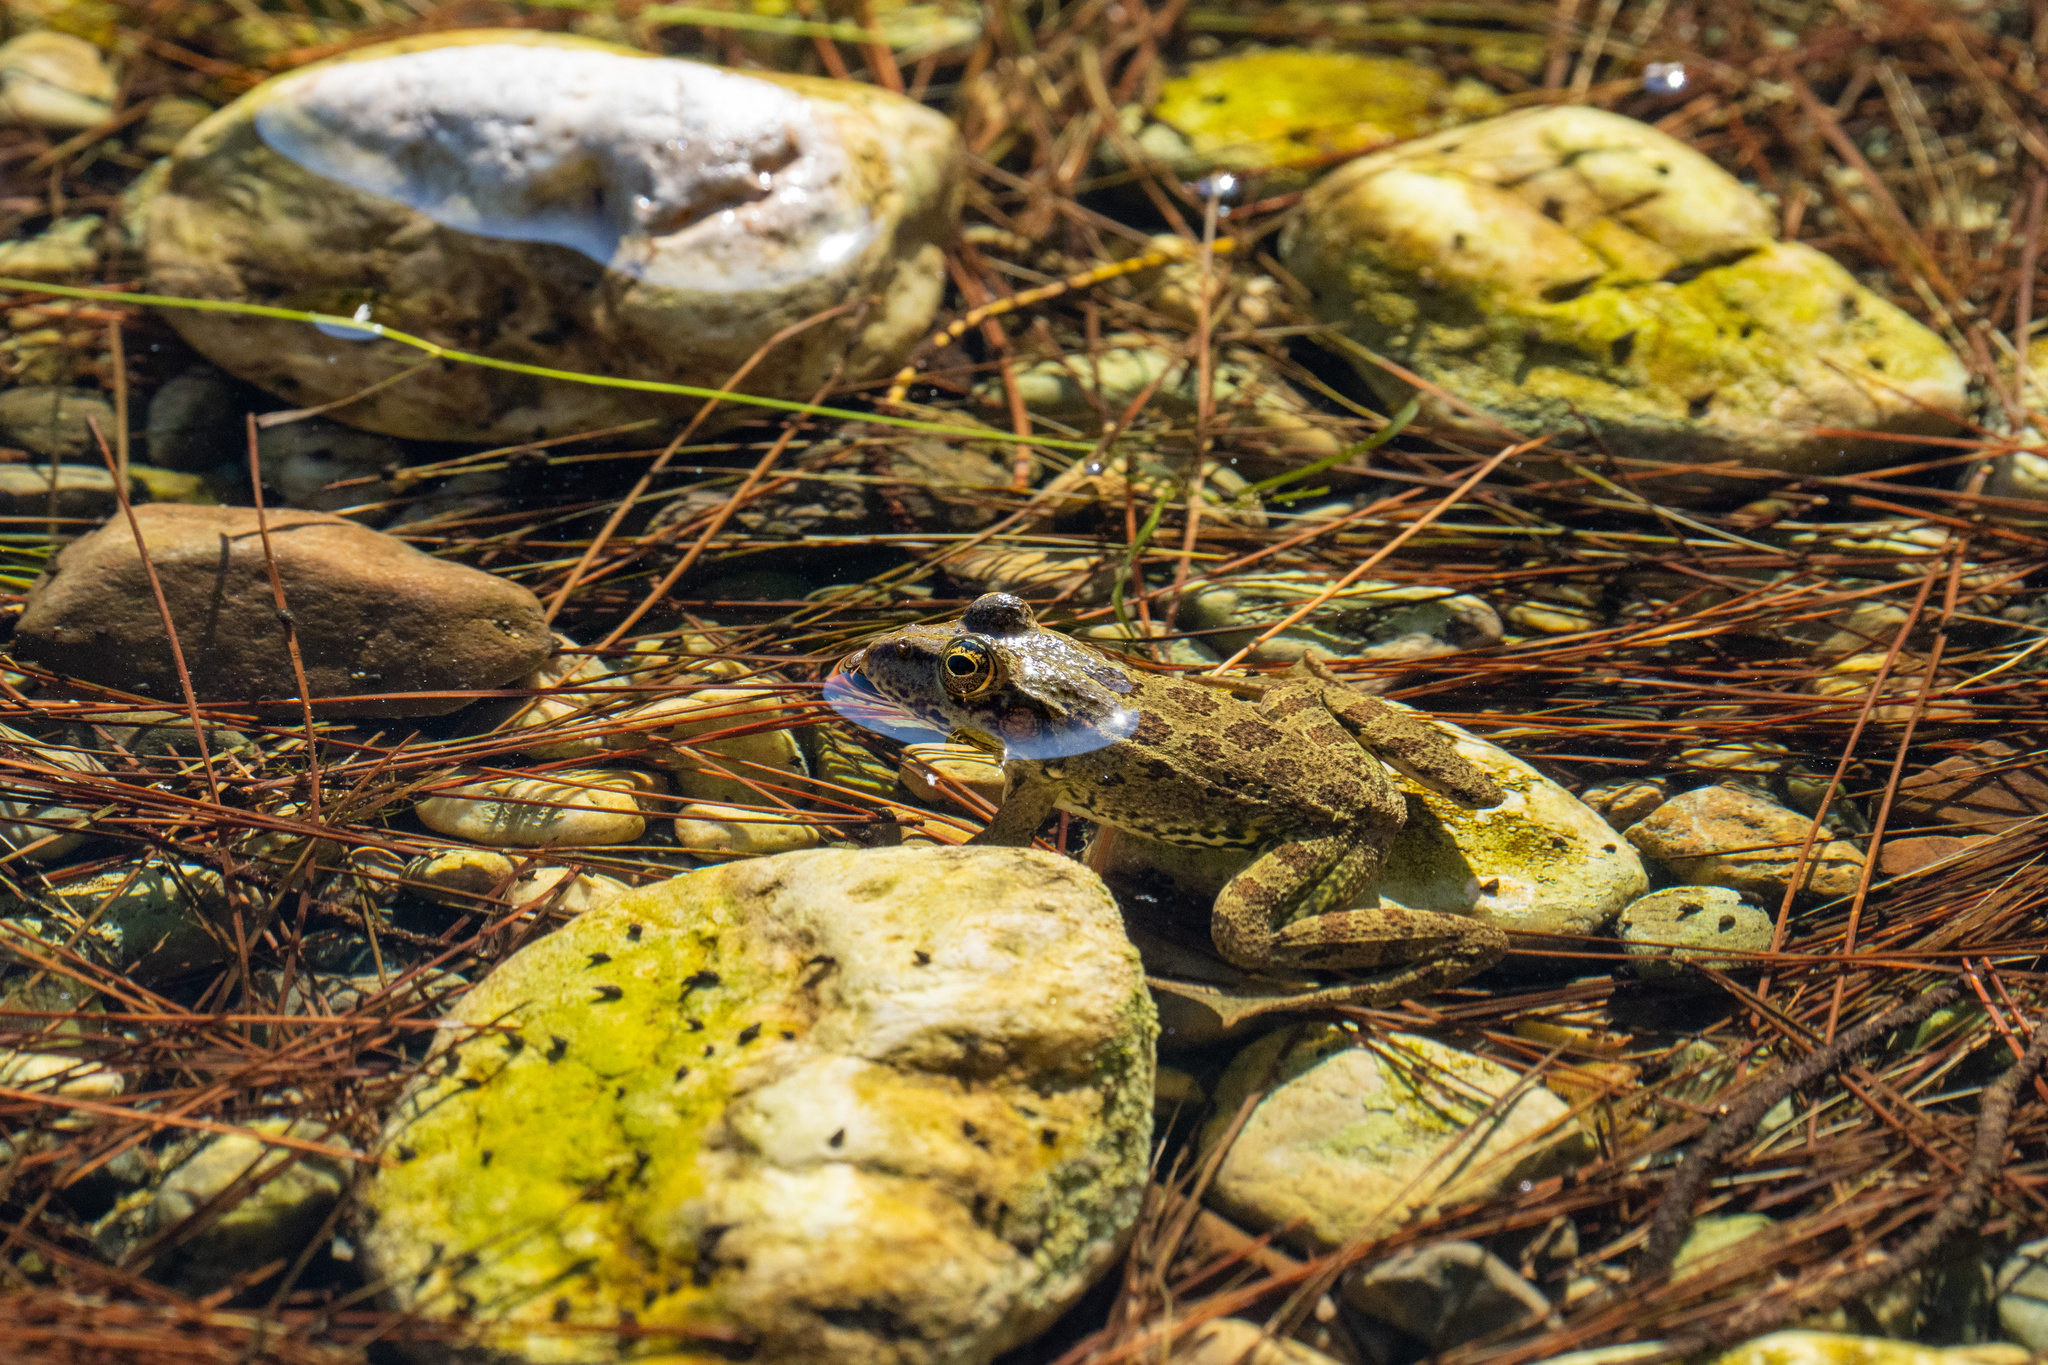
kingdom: Animalia
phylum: Chordata
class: Amphibia
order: Anura
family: Ranidae
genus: Pelophylax
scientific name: Pelophylax ridibundus
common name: Marsh frog
